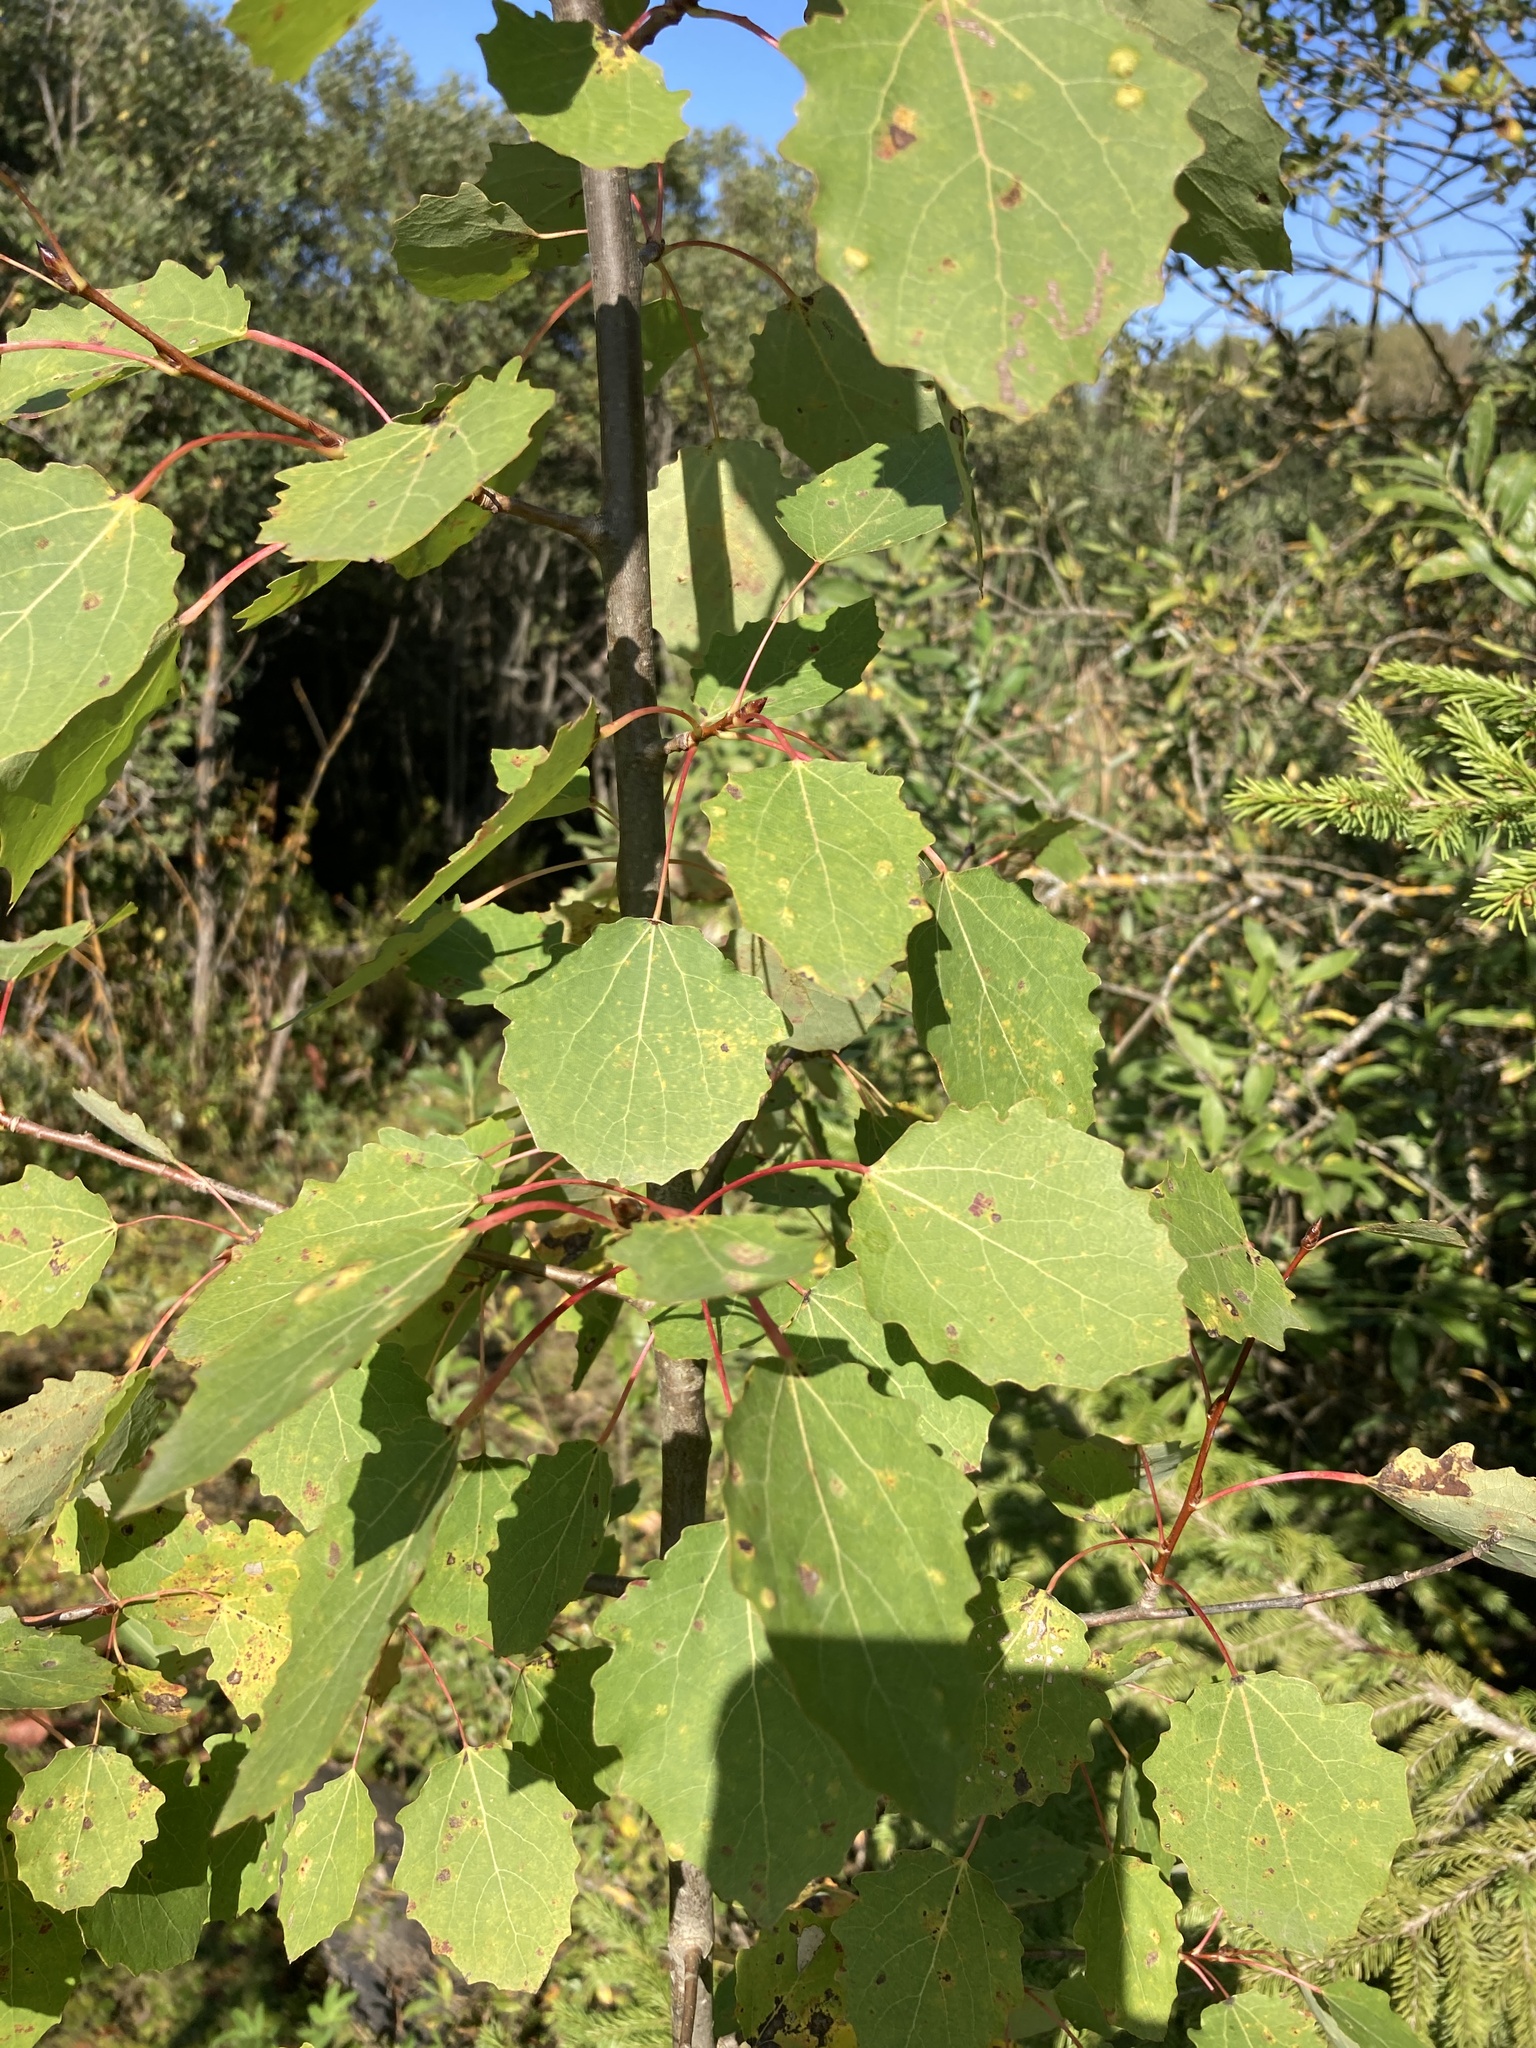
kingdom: Plantae
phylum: Tracheophyta
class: Magnoliopsida
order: Malpighiales
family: Salicaceae
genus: Populus
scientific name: Populus tremula
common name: European aspen
